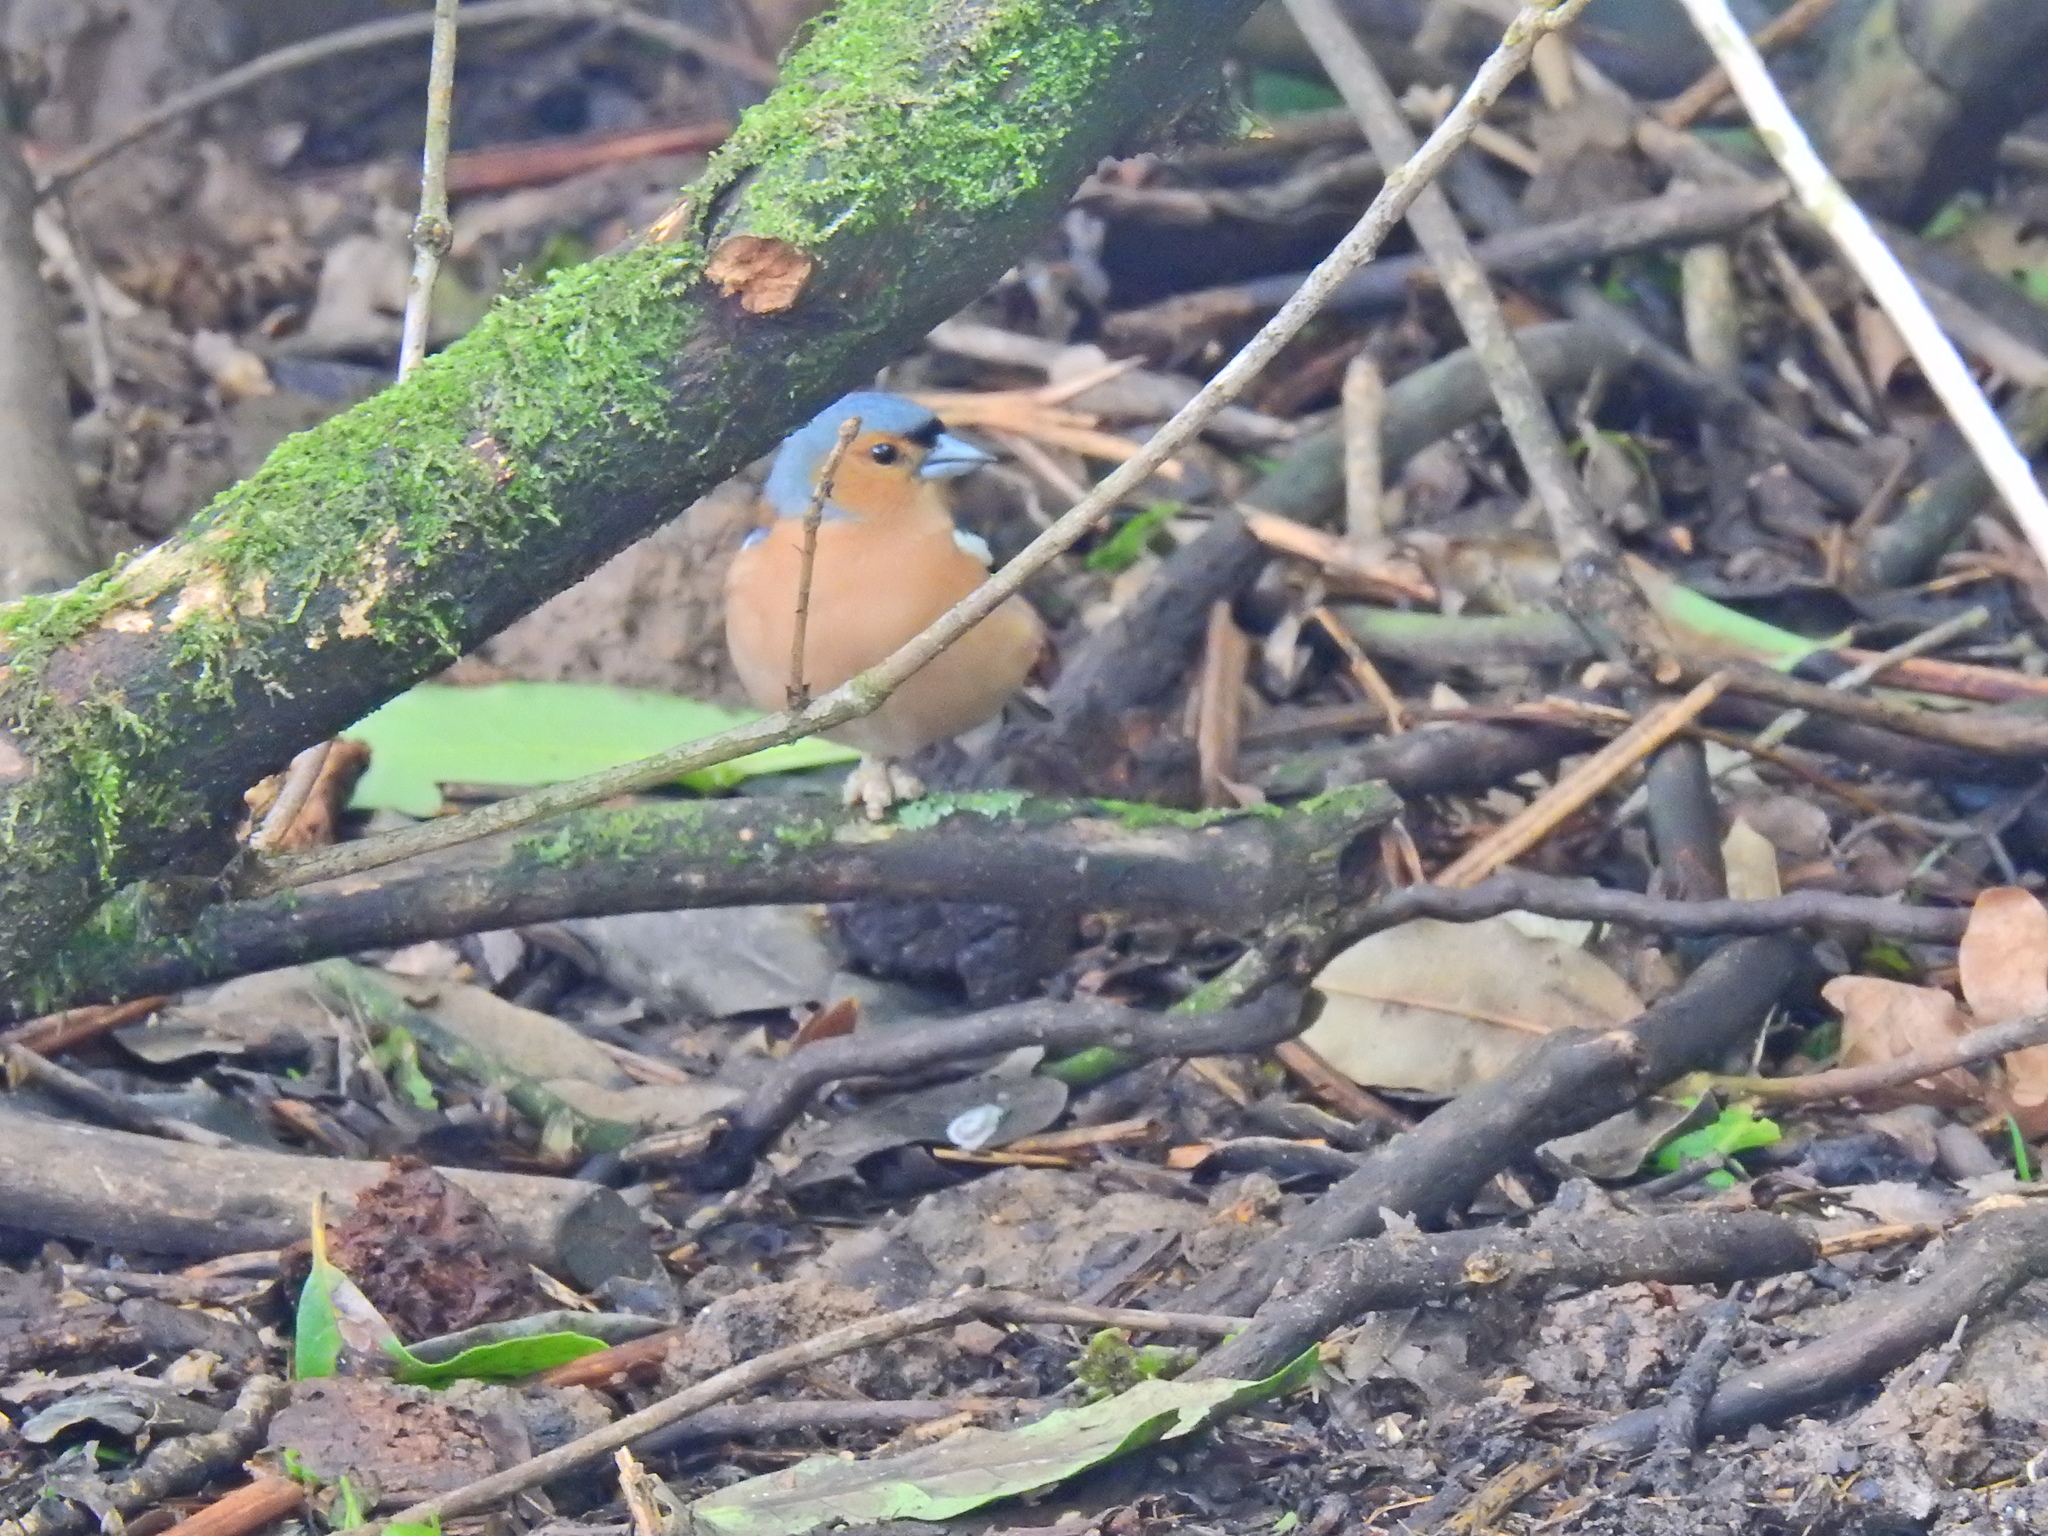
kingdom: Animalia
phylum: Chordata
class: Aves
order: Passeriformes
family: Fringillidae
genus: Fringilla
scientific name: Fringilla coelebs
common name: Common chaffinch
